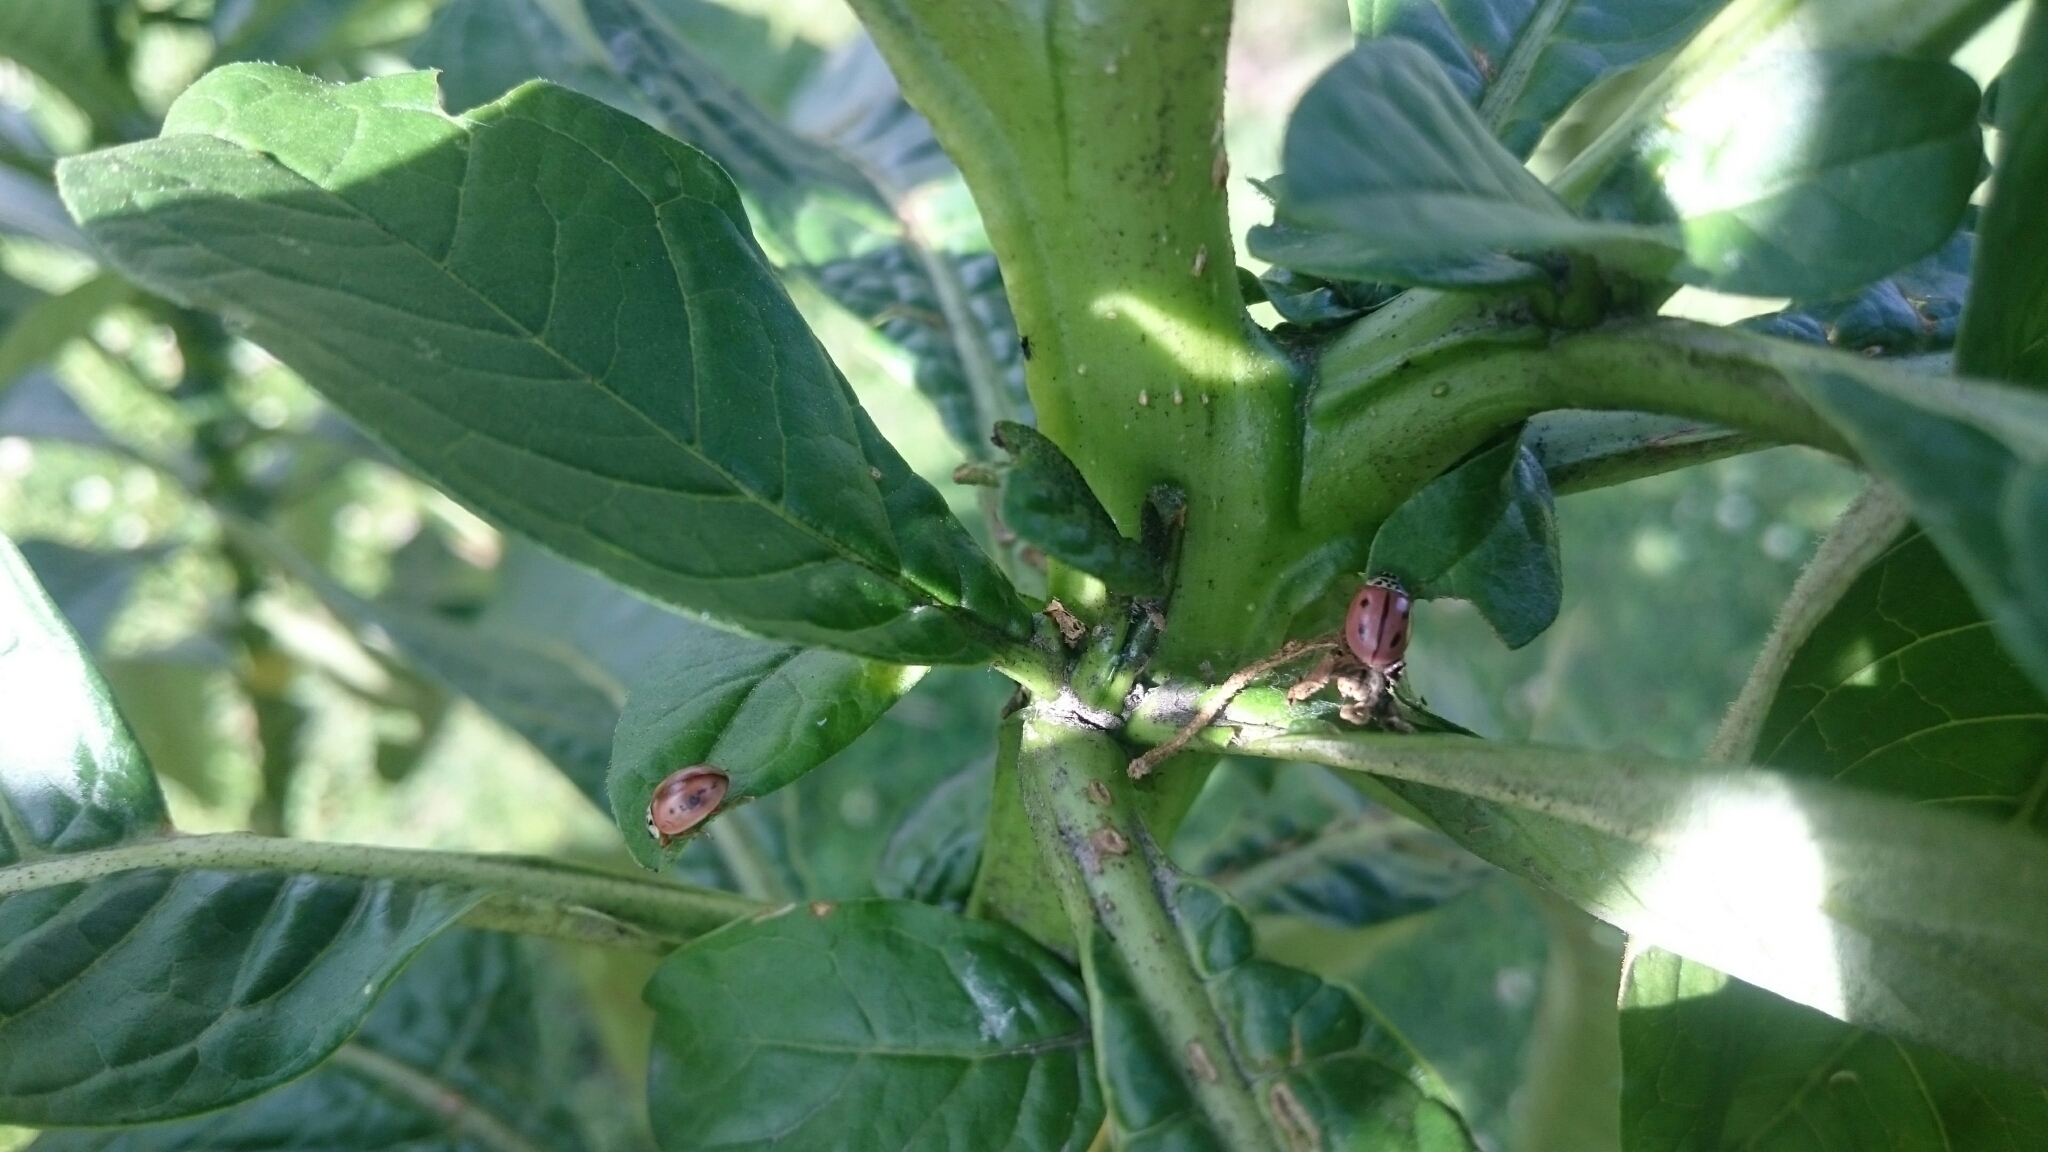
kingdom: Animalia
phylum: Arthropoda
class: Insecta
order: Coleoptera
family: Coccinellidae
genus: Mulsantina
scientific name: Mulsantina
